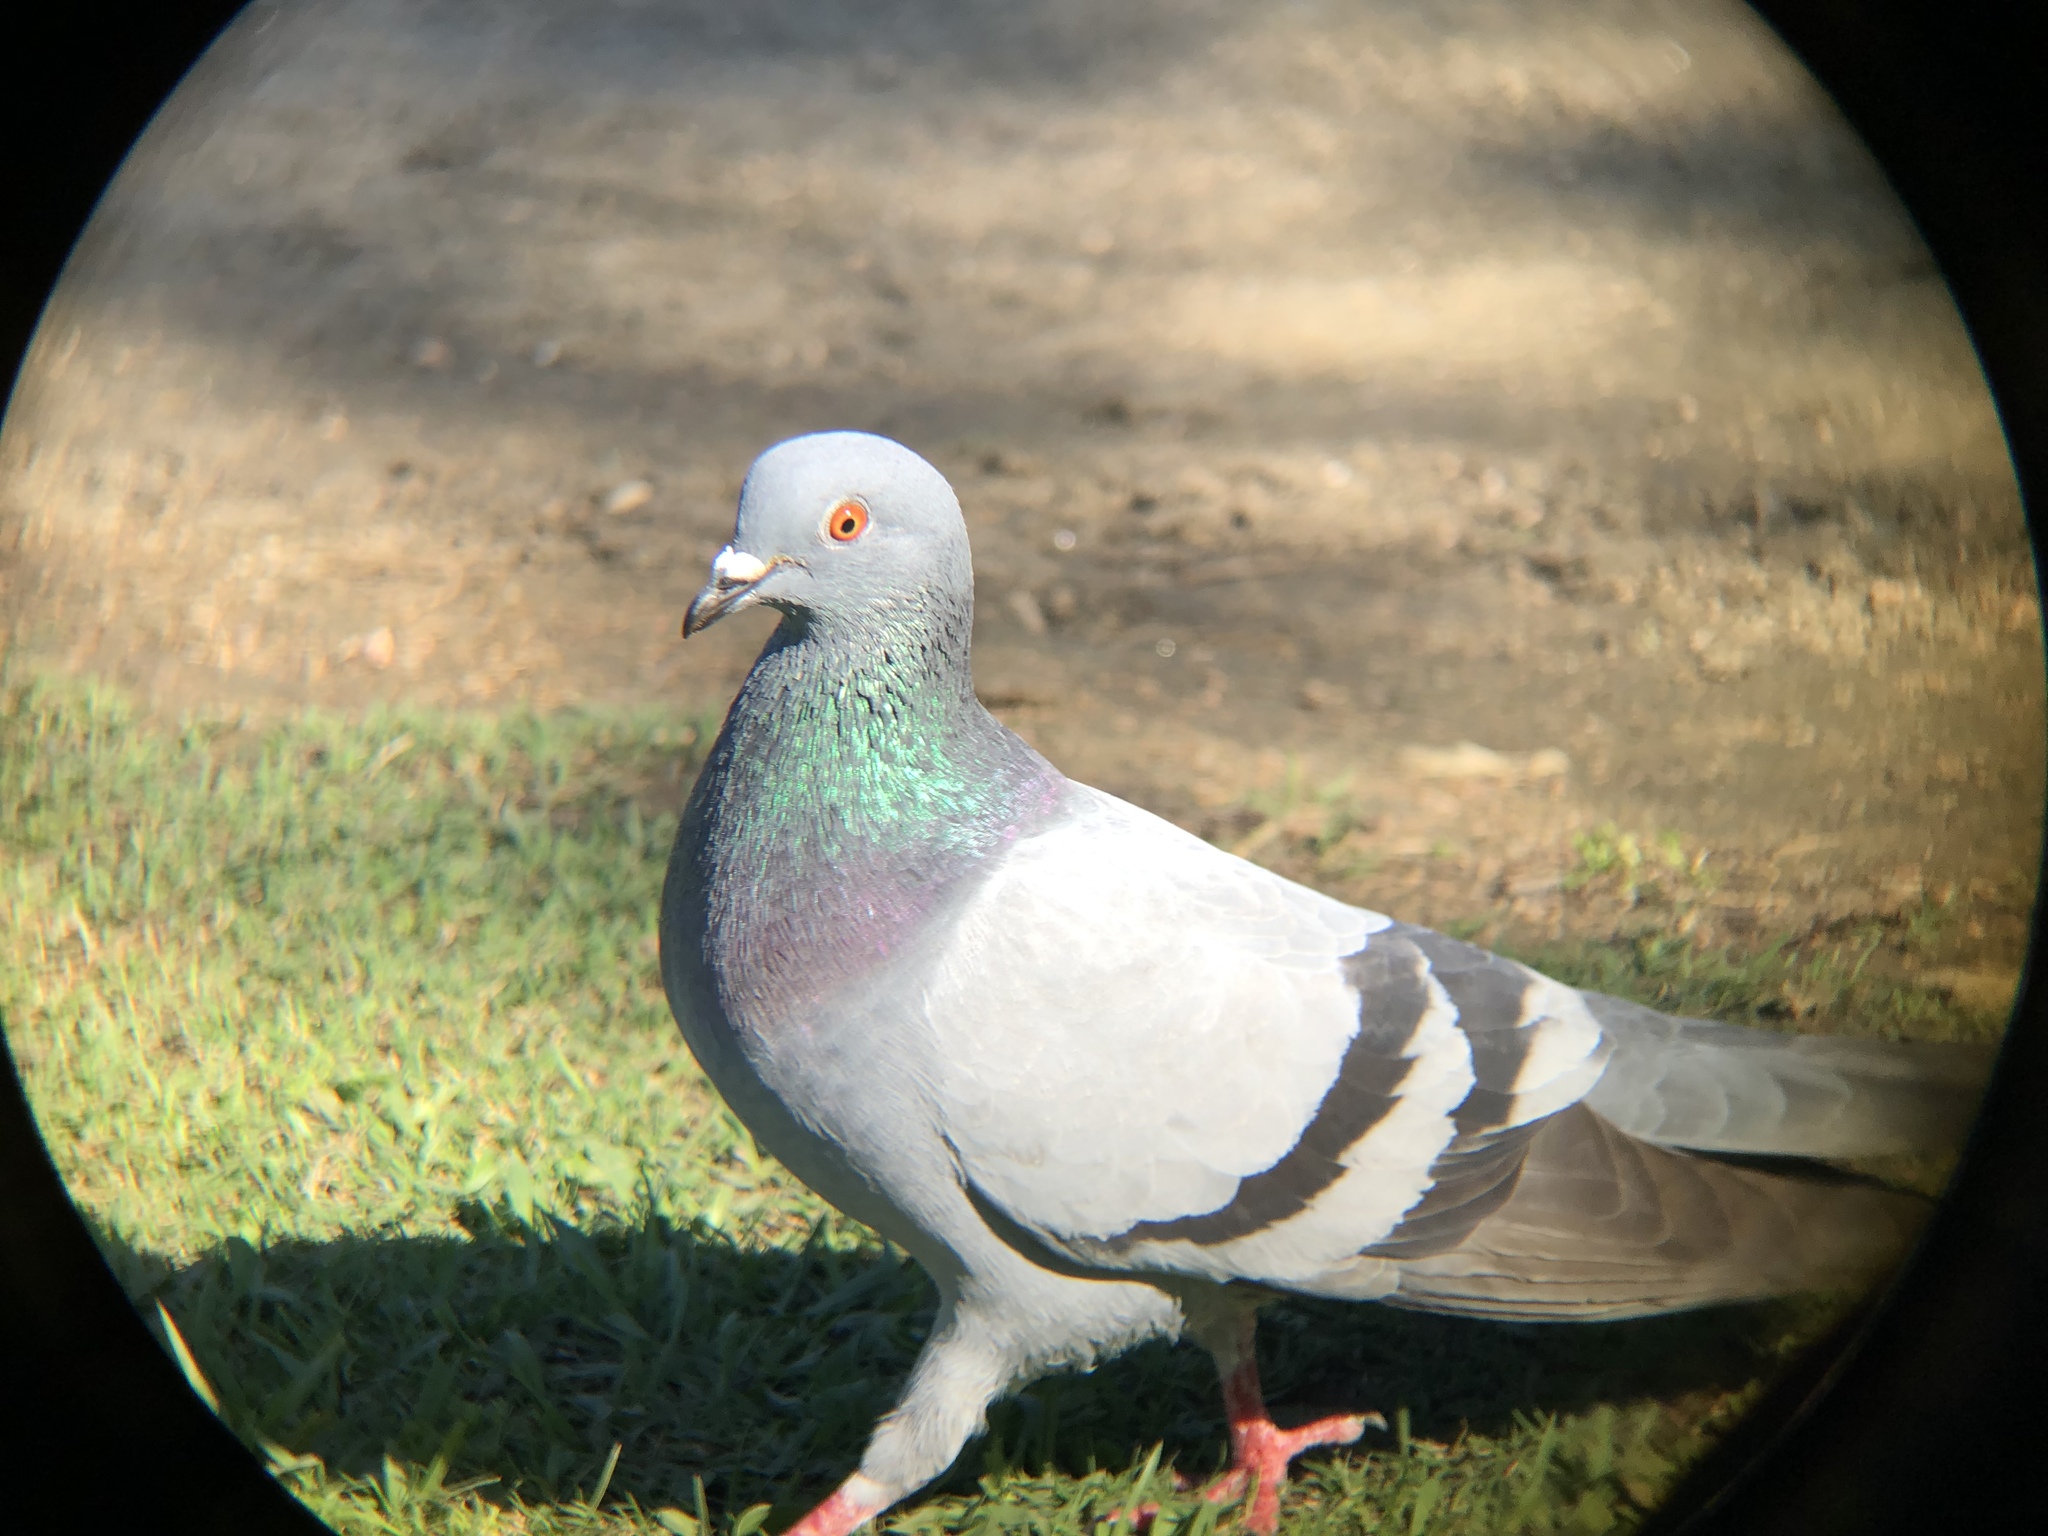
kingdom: Animalia
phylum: Chordata
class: Aves
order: Columbiformes
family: Columbidae
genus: Columba
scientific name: Columba livia
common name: Rock pigeon
